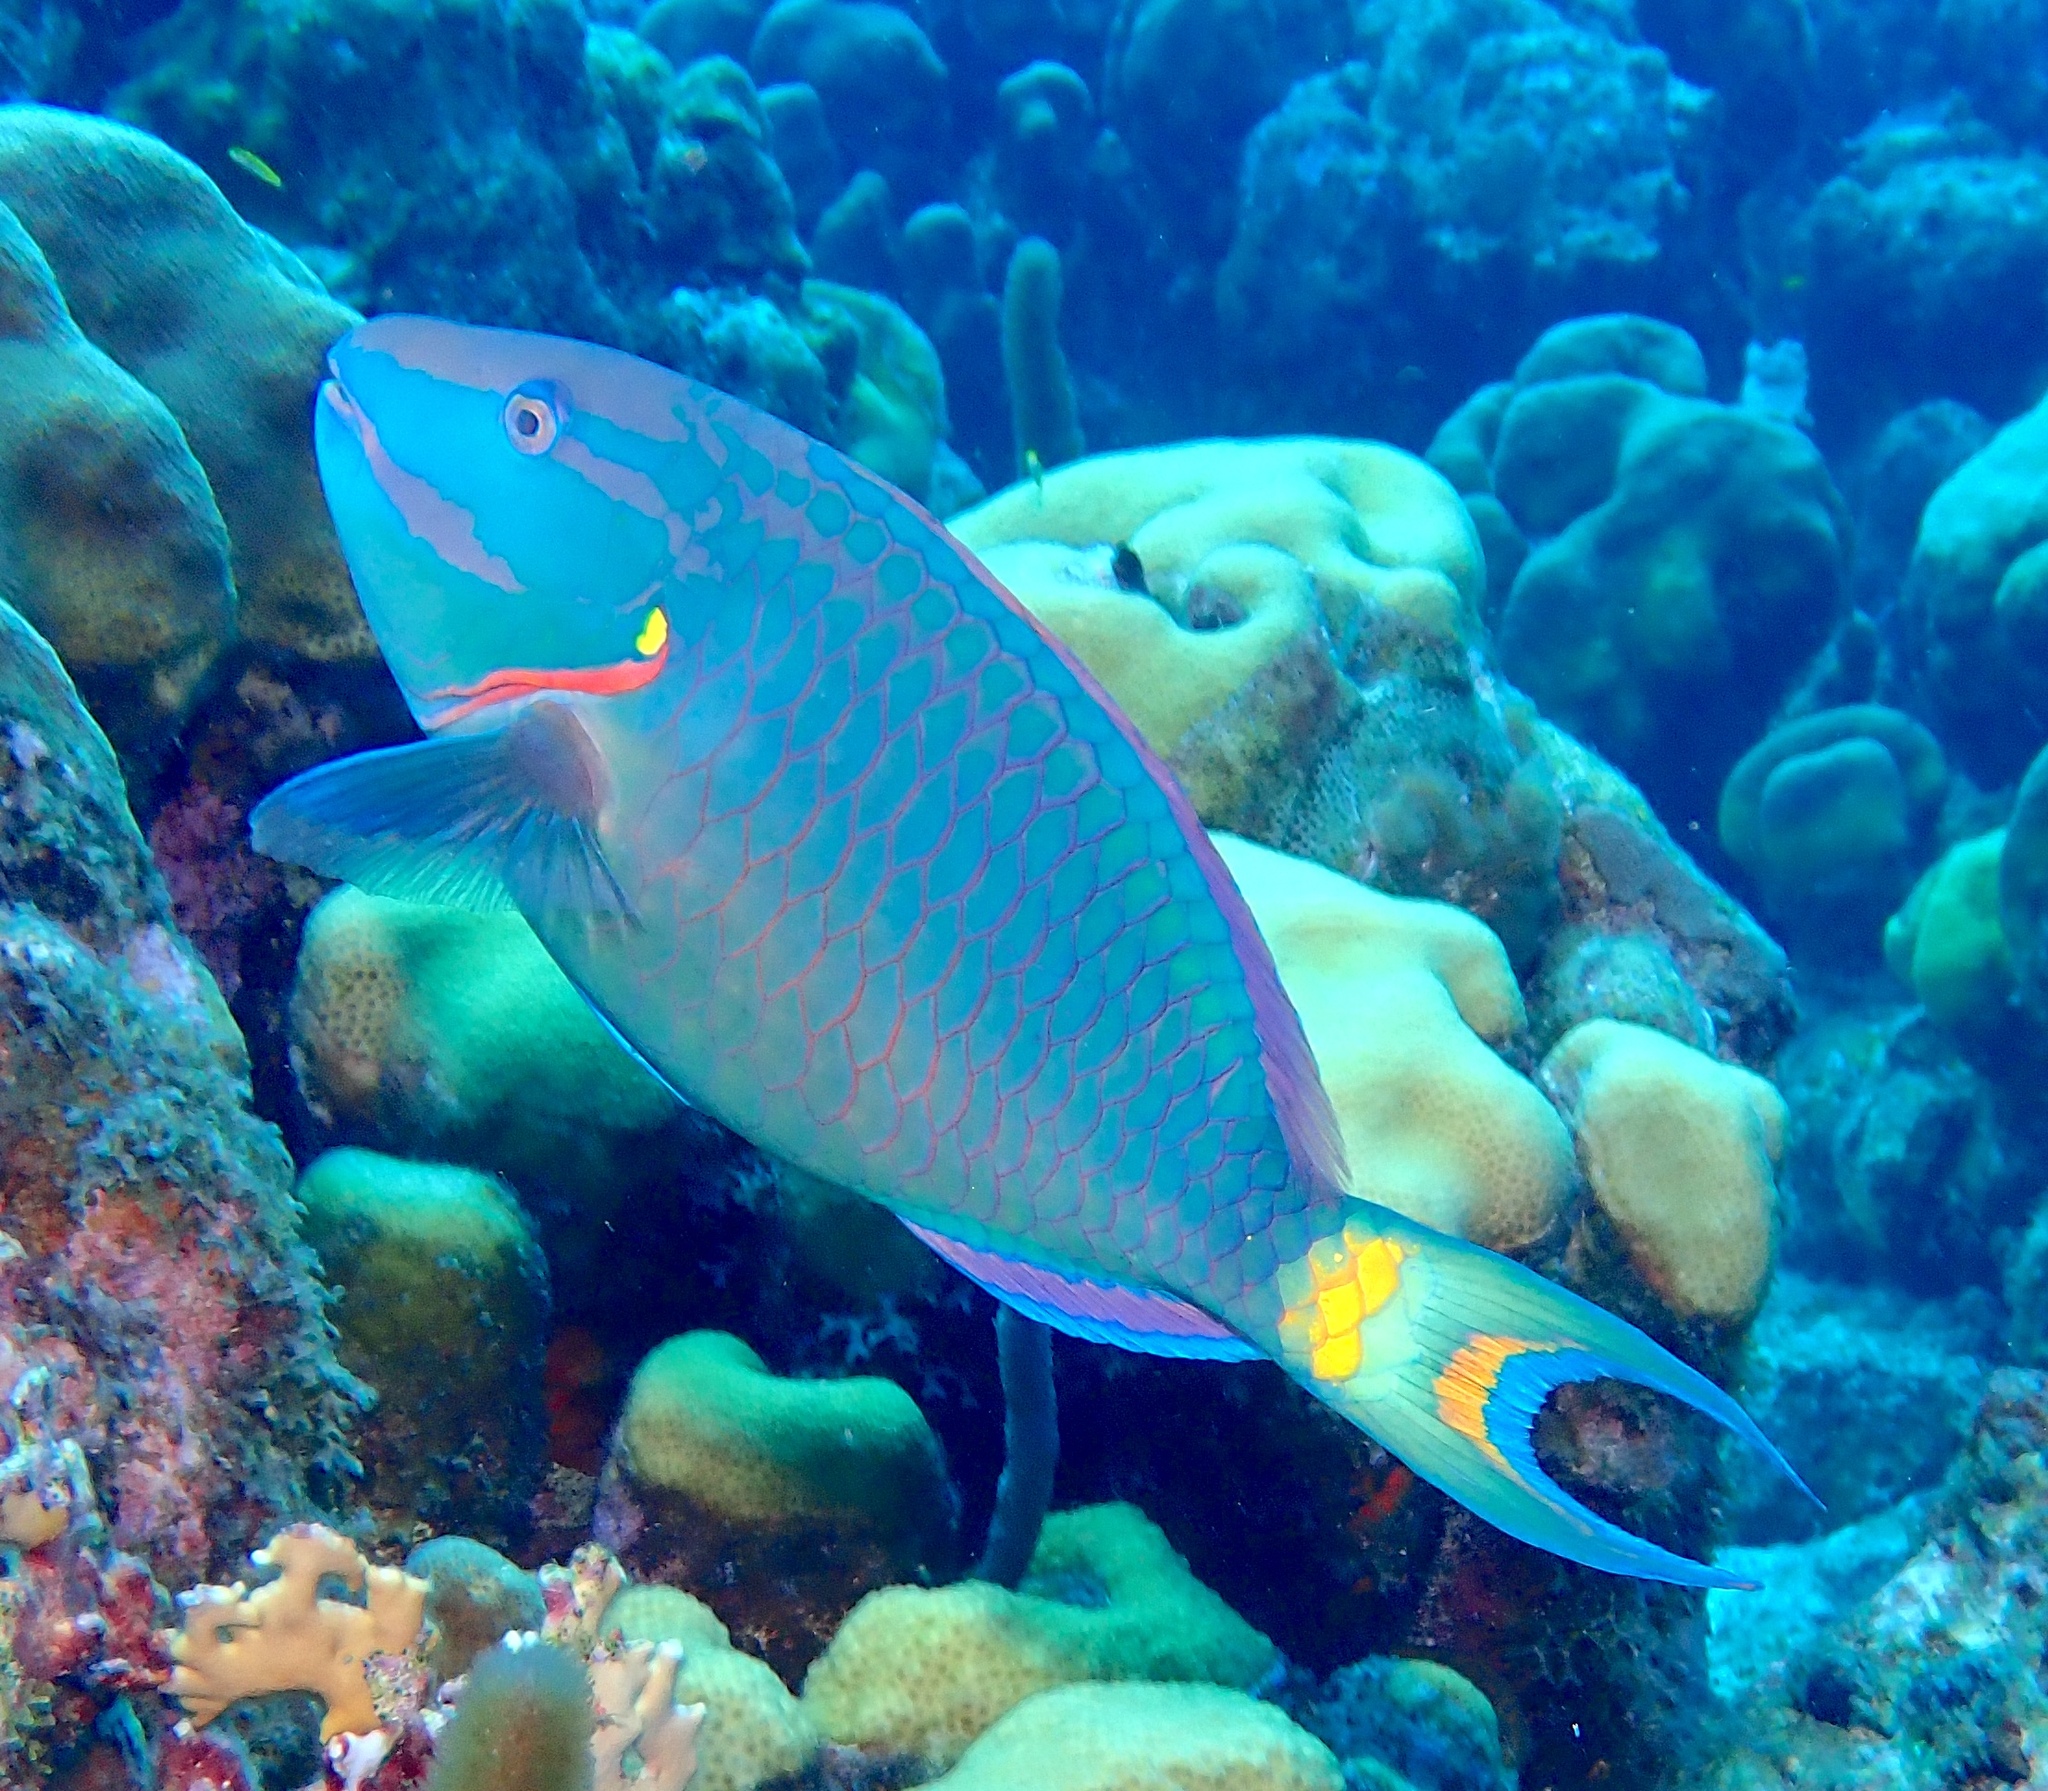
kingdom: Animalia
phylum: Chordata
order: Perciformes
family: Scaridae
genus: Sparisoma
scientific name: Sparisoma viride
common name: Stoplight parrotfish
